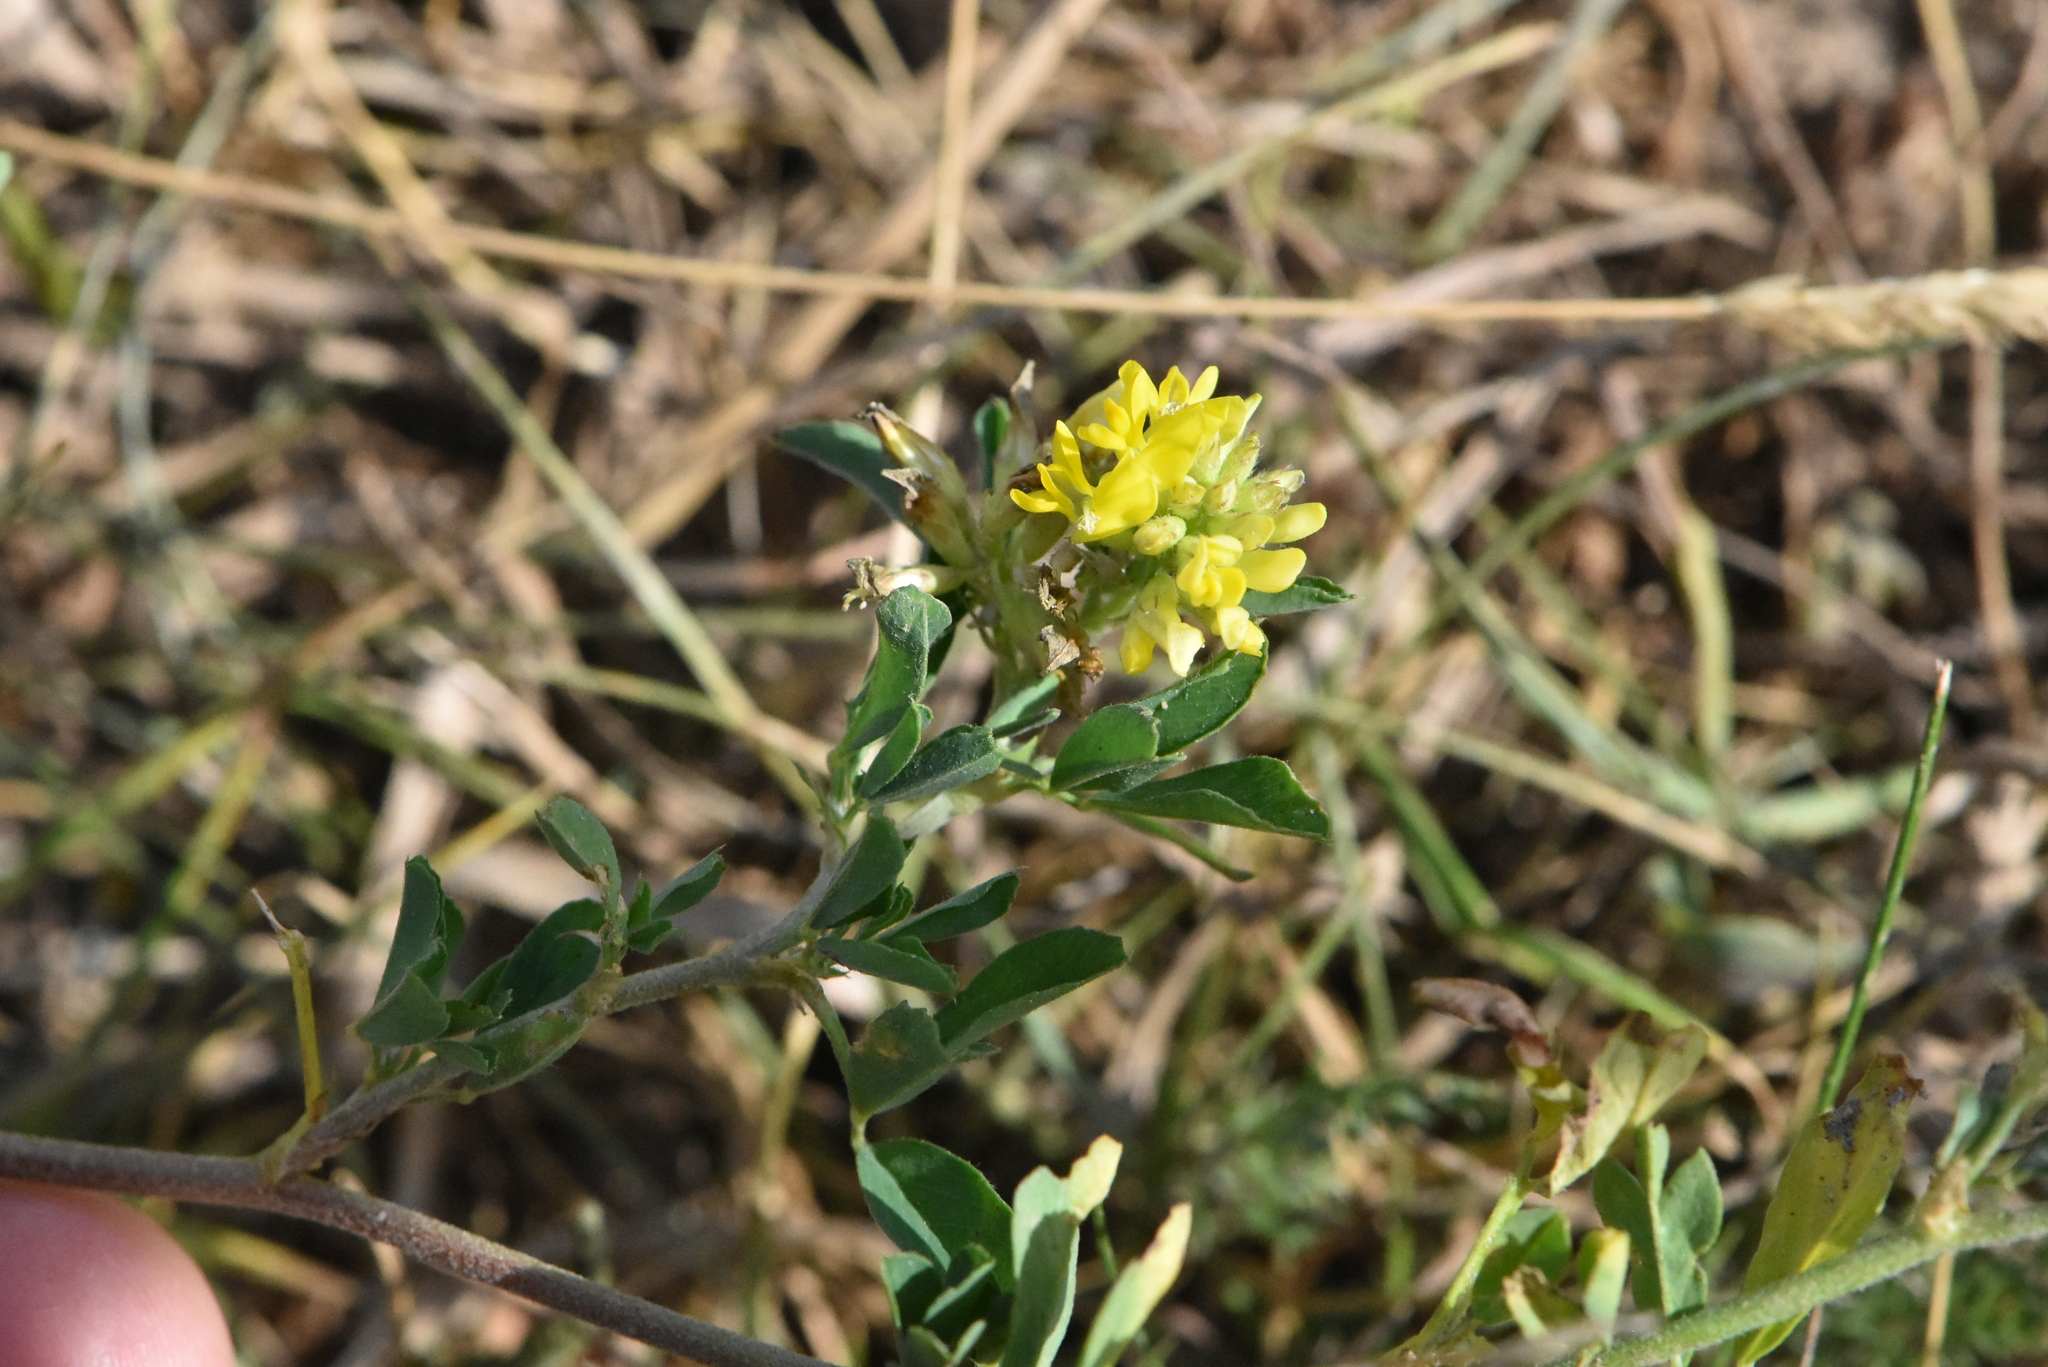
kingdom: Plantae
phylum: Tracheophyta
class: Magnoliopsida
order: Fabales
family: Fabaceae
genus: Medicago
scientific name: Medicago varia
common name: Sand lucerne
